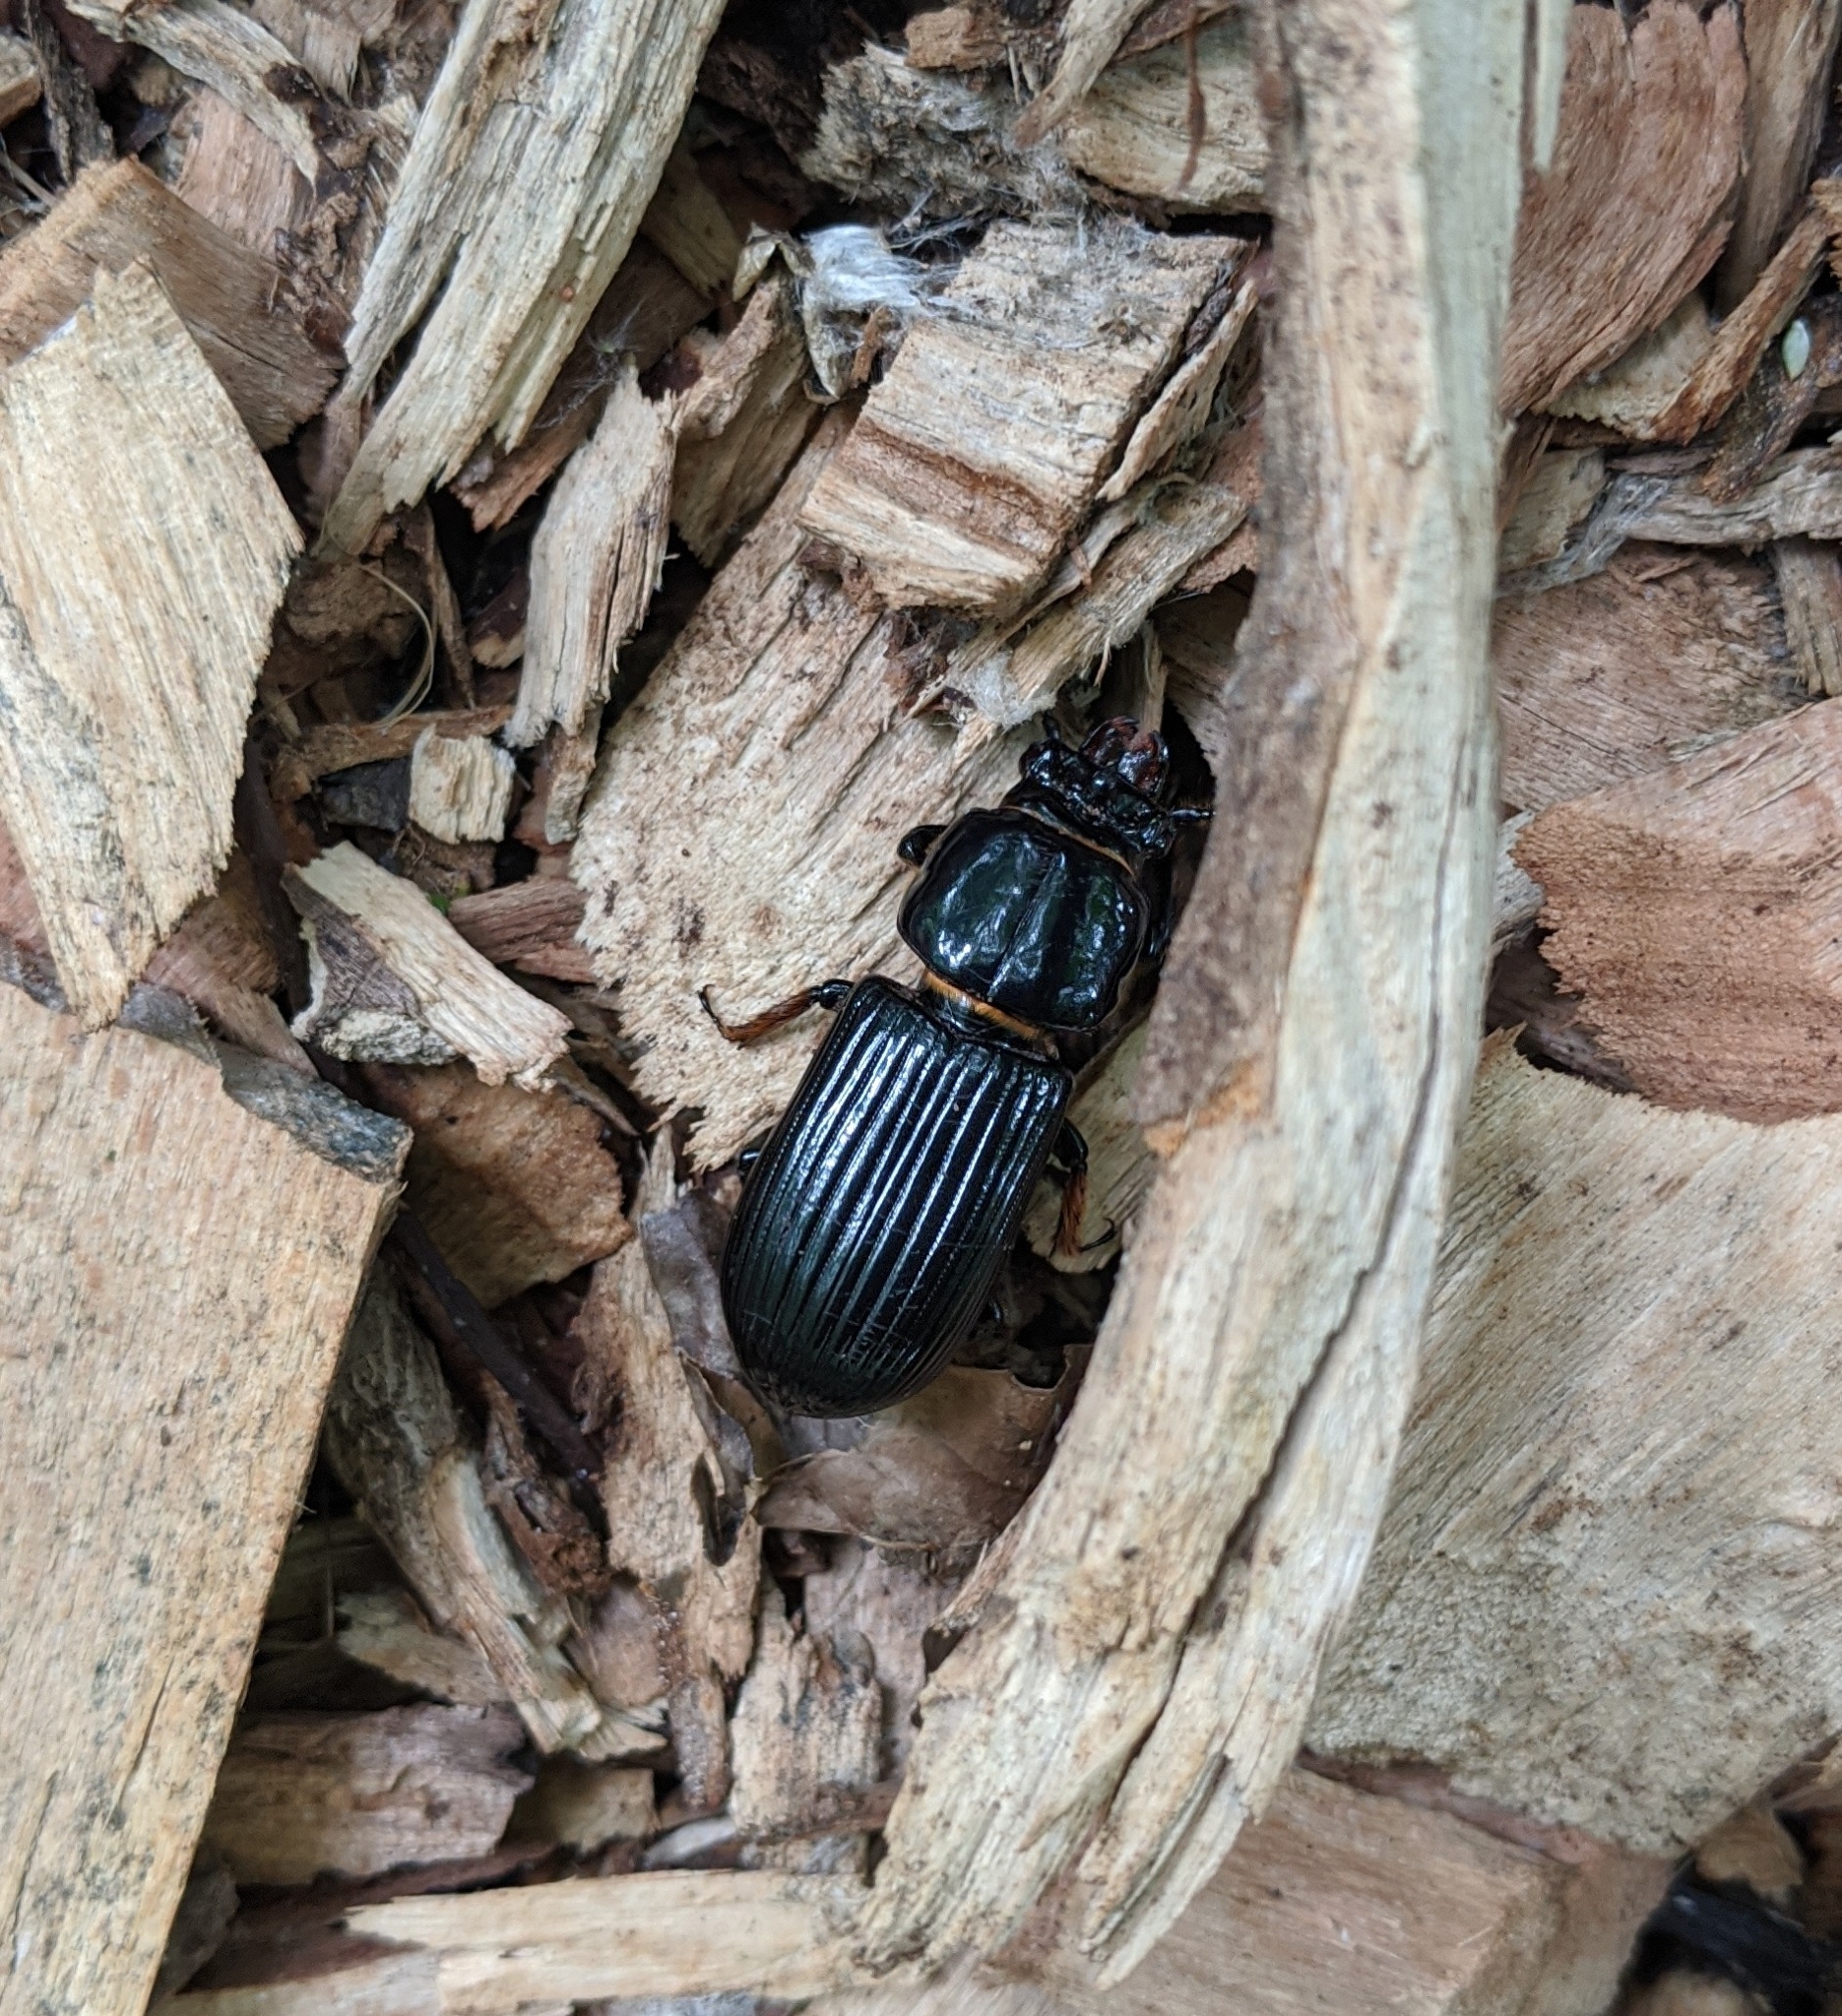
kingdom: Animalia
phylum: Arthropoda
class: Insecta
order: Coleoptera
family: Passalidae
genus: Odontotaenius
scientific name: Odontotaenius disjunctus
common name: Patent leather beetle
